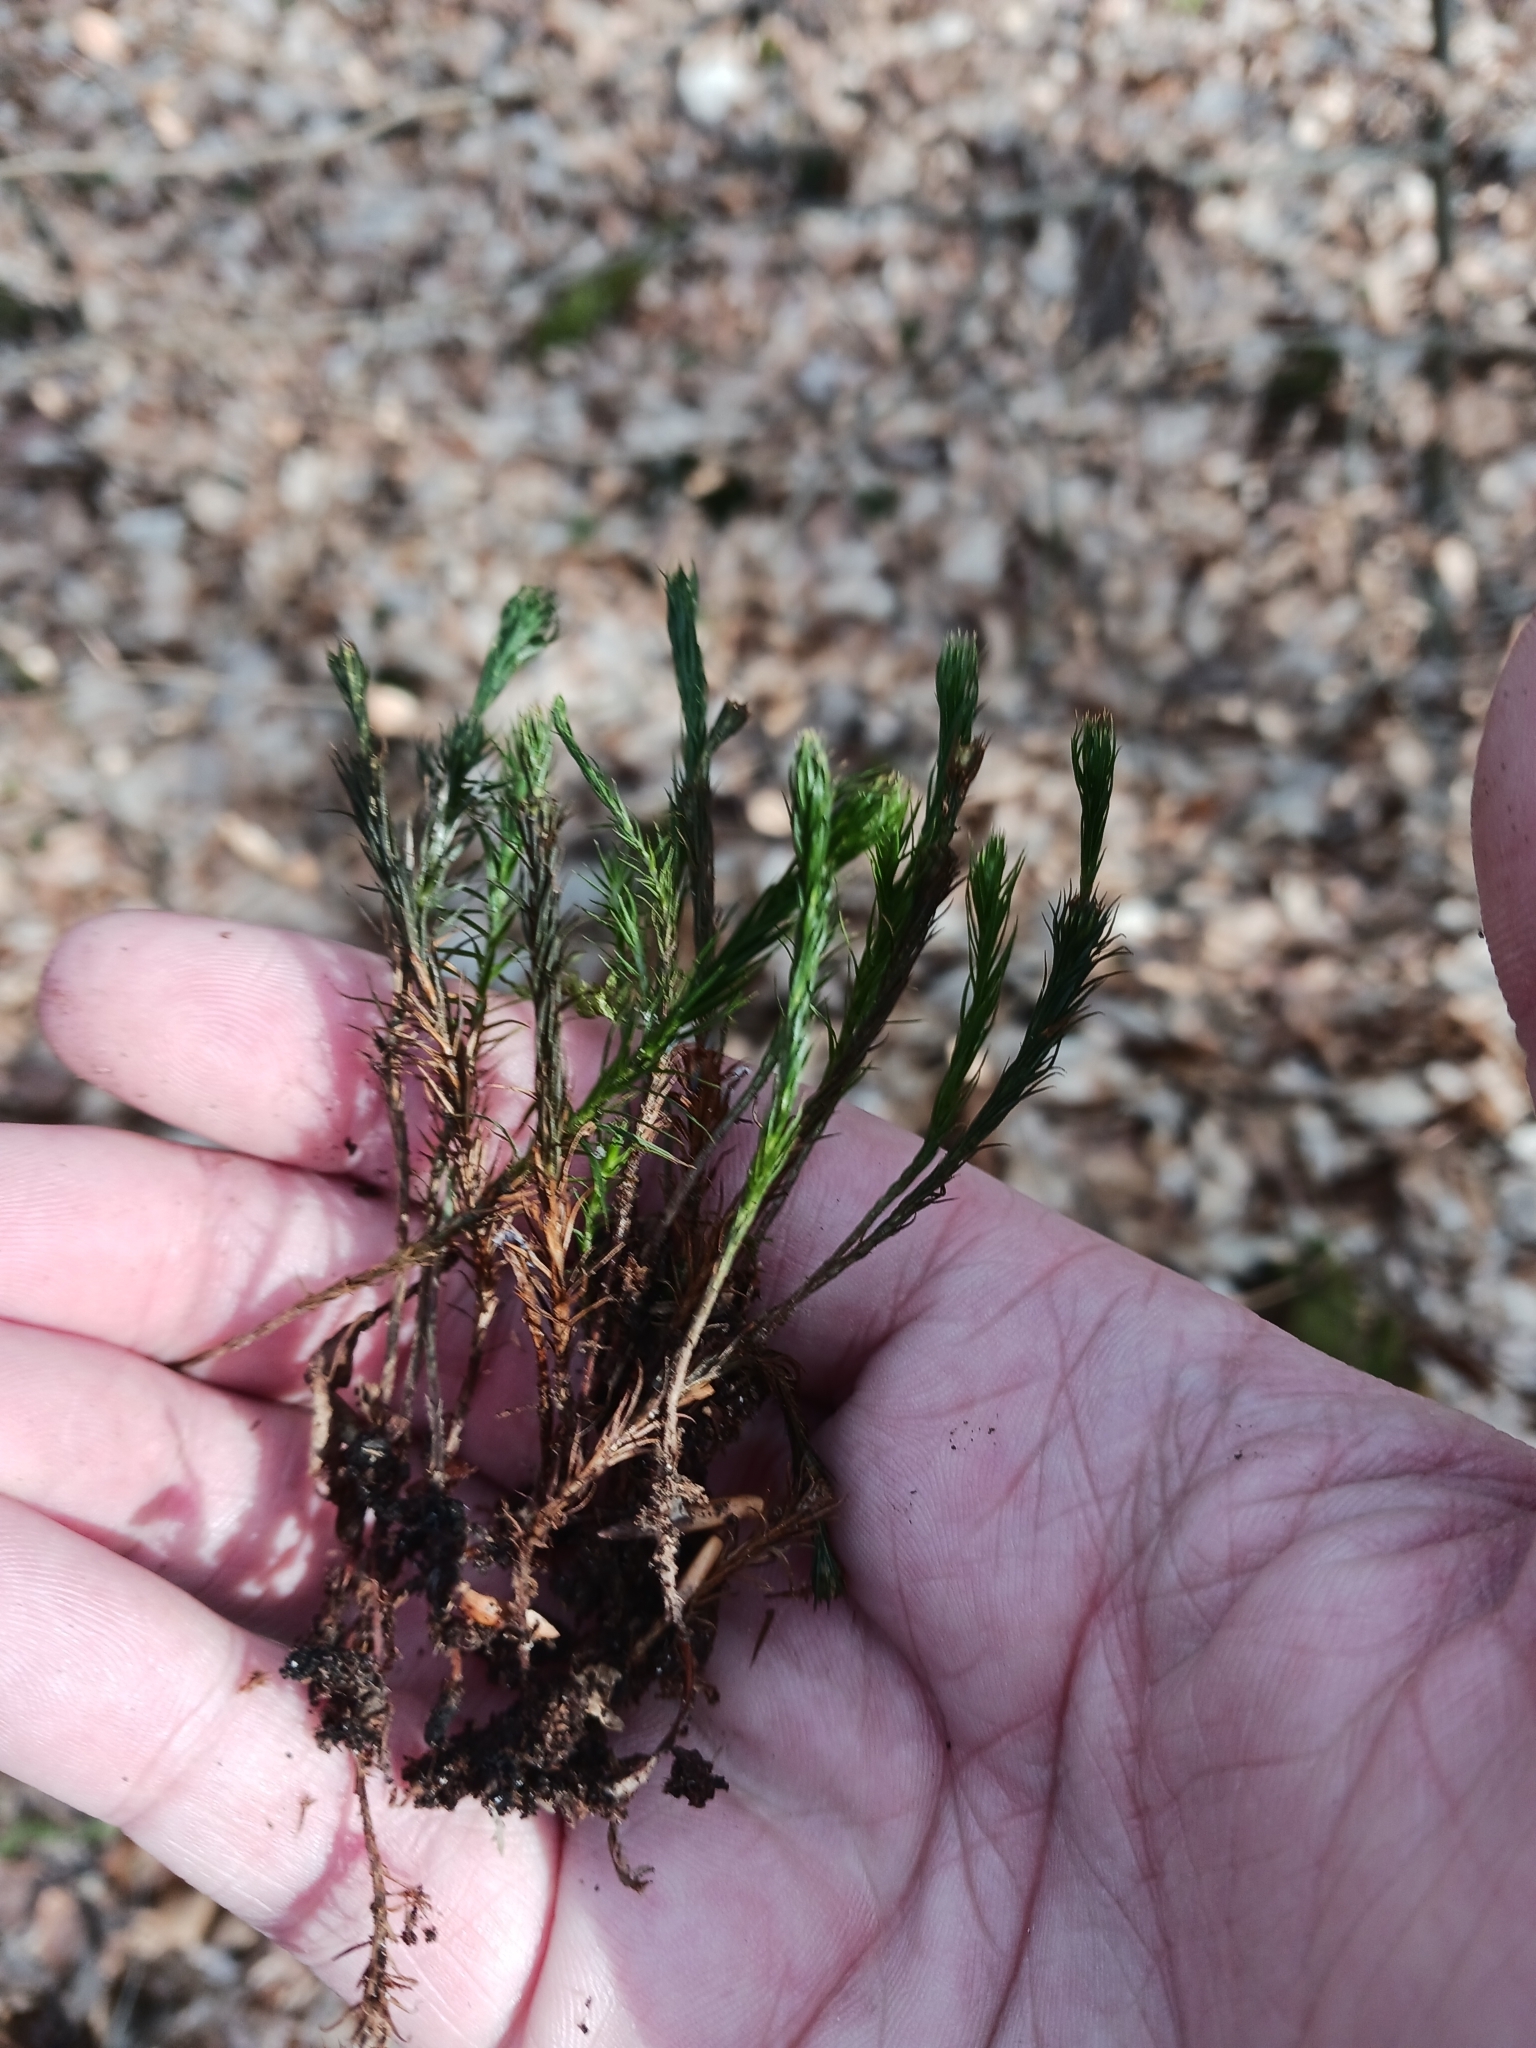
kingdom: Plantae
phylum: Bryophyta
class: Polytrichopsida
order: Polytrichales
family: Polytrichaceae
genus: Polytrichum
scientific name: Polytrichum formosum
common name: Bank haircap moss
